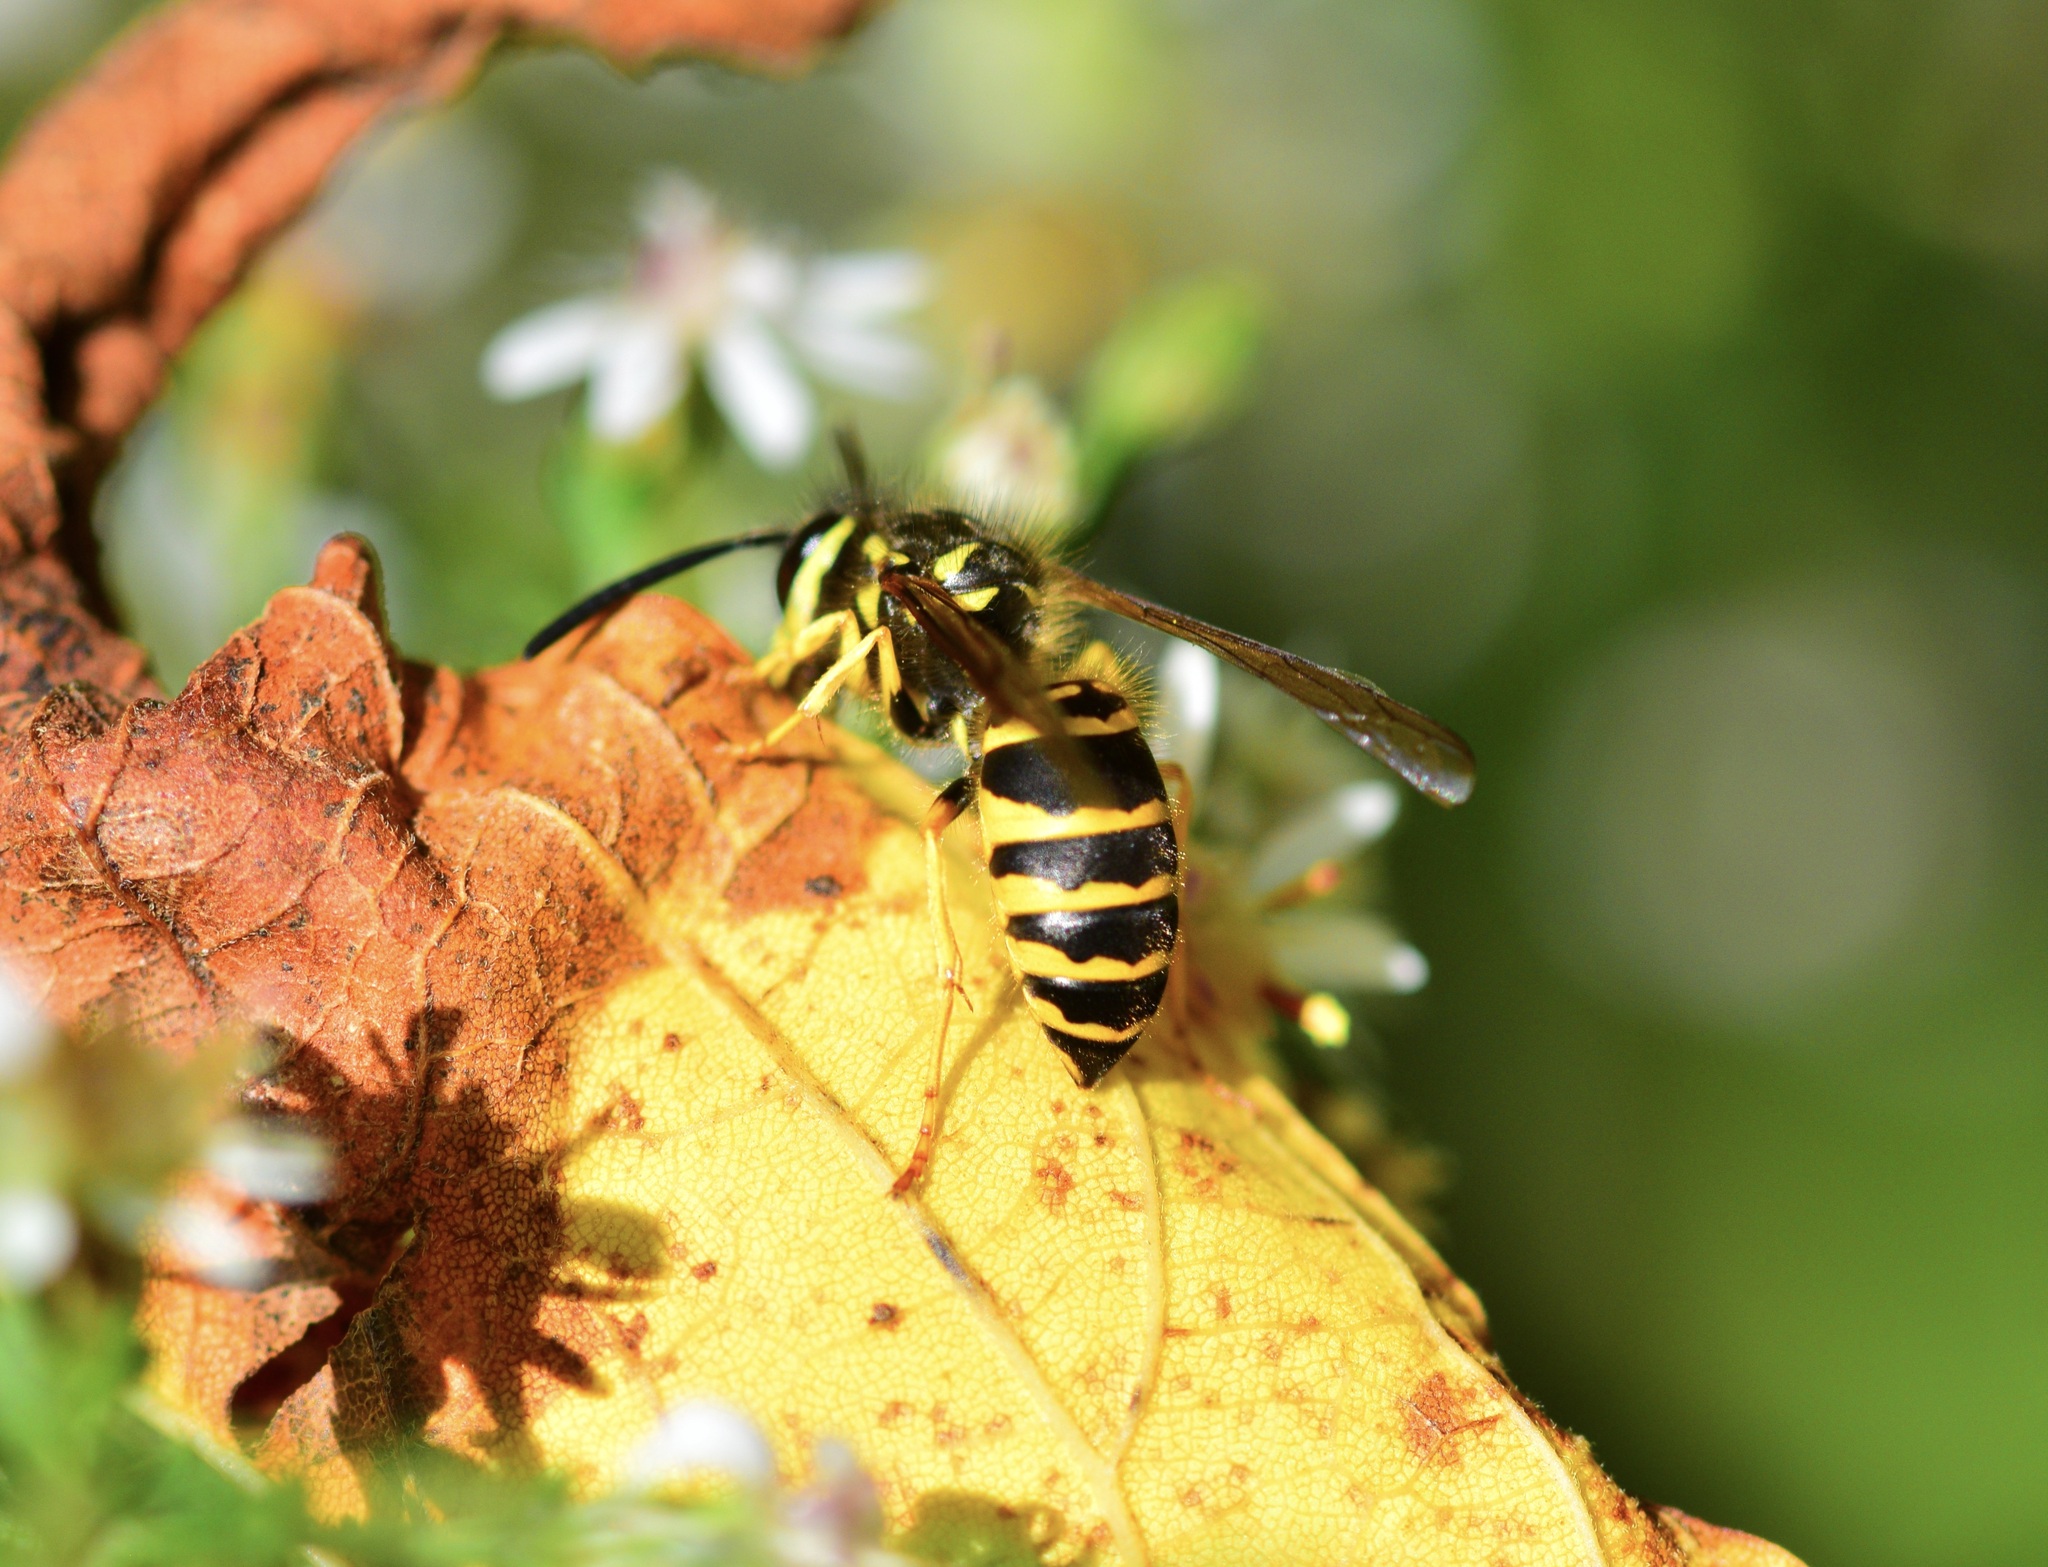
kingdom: Animalia
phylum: Arthropoda
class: Insecta
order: Hymenoptera
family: Vespidae
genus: Vespula
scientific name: Vespula maculifrons
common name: Eastern yellowjacket
